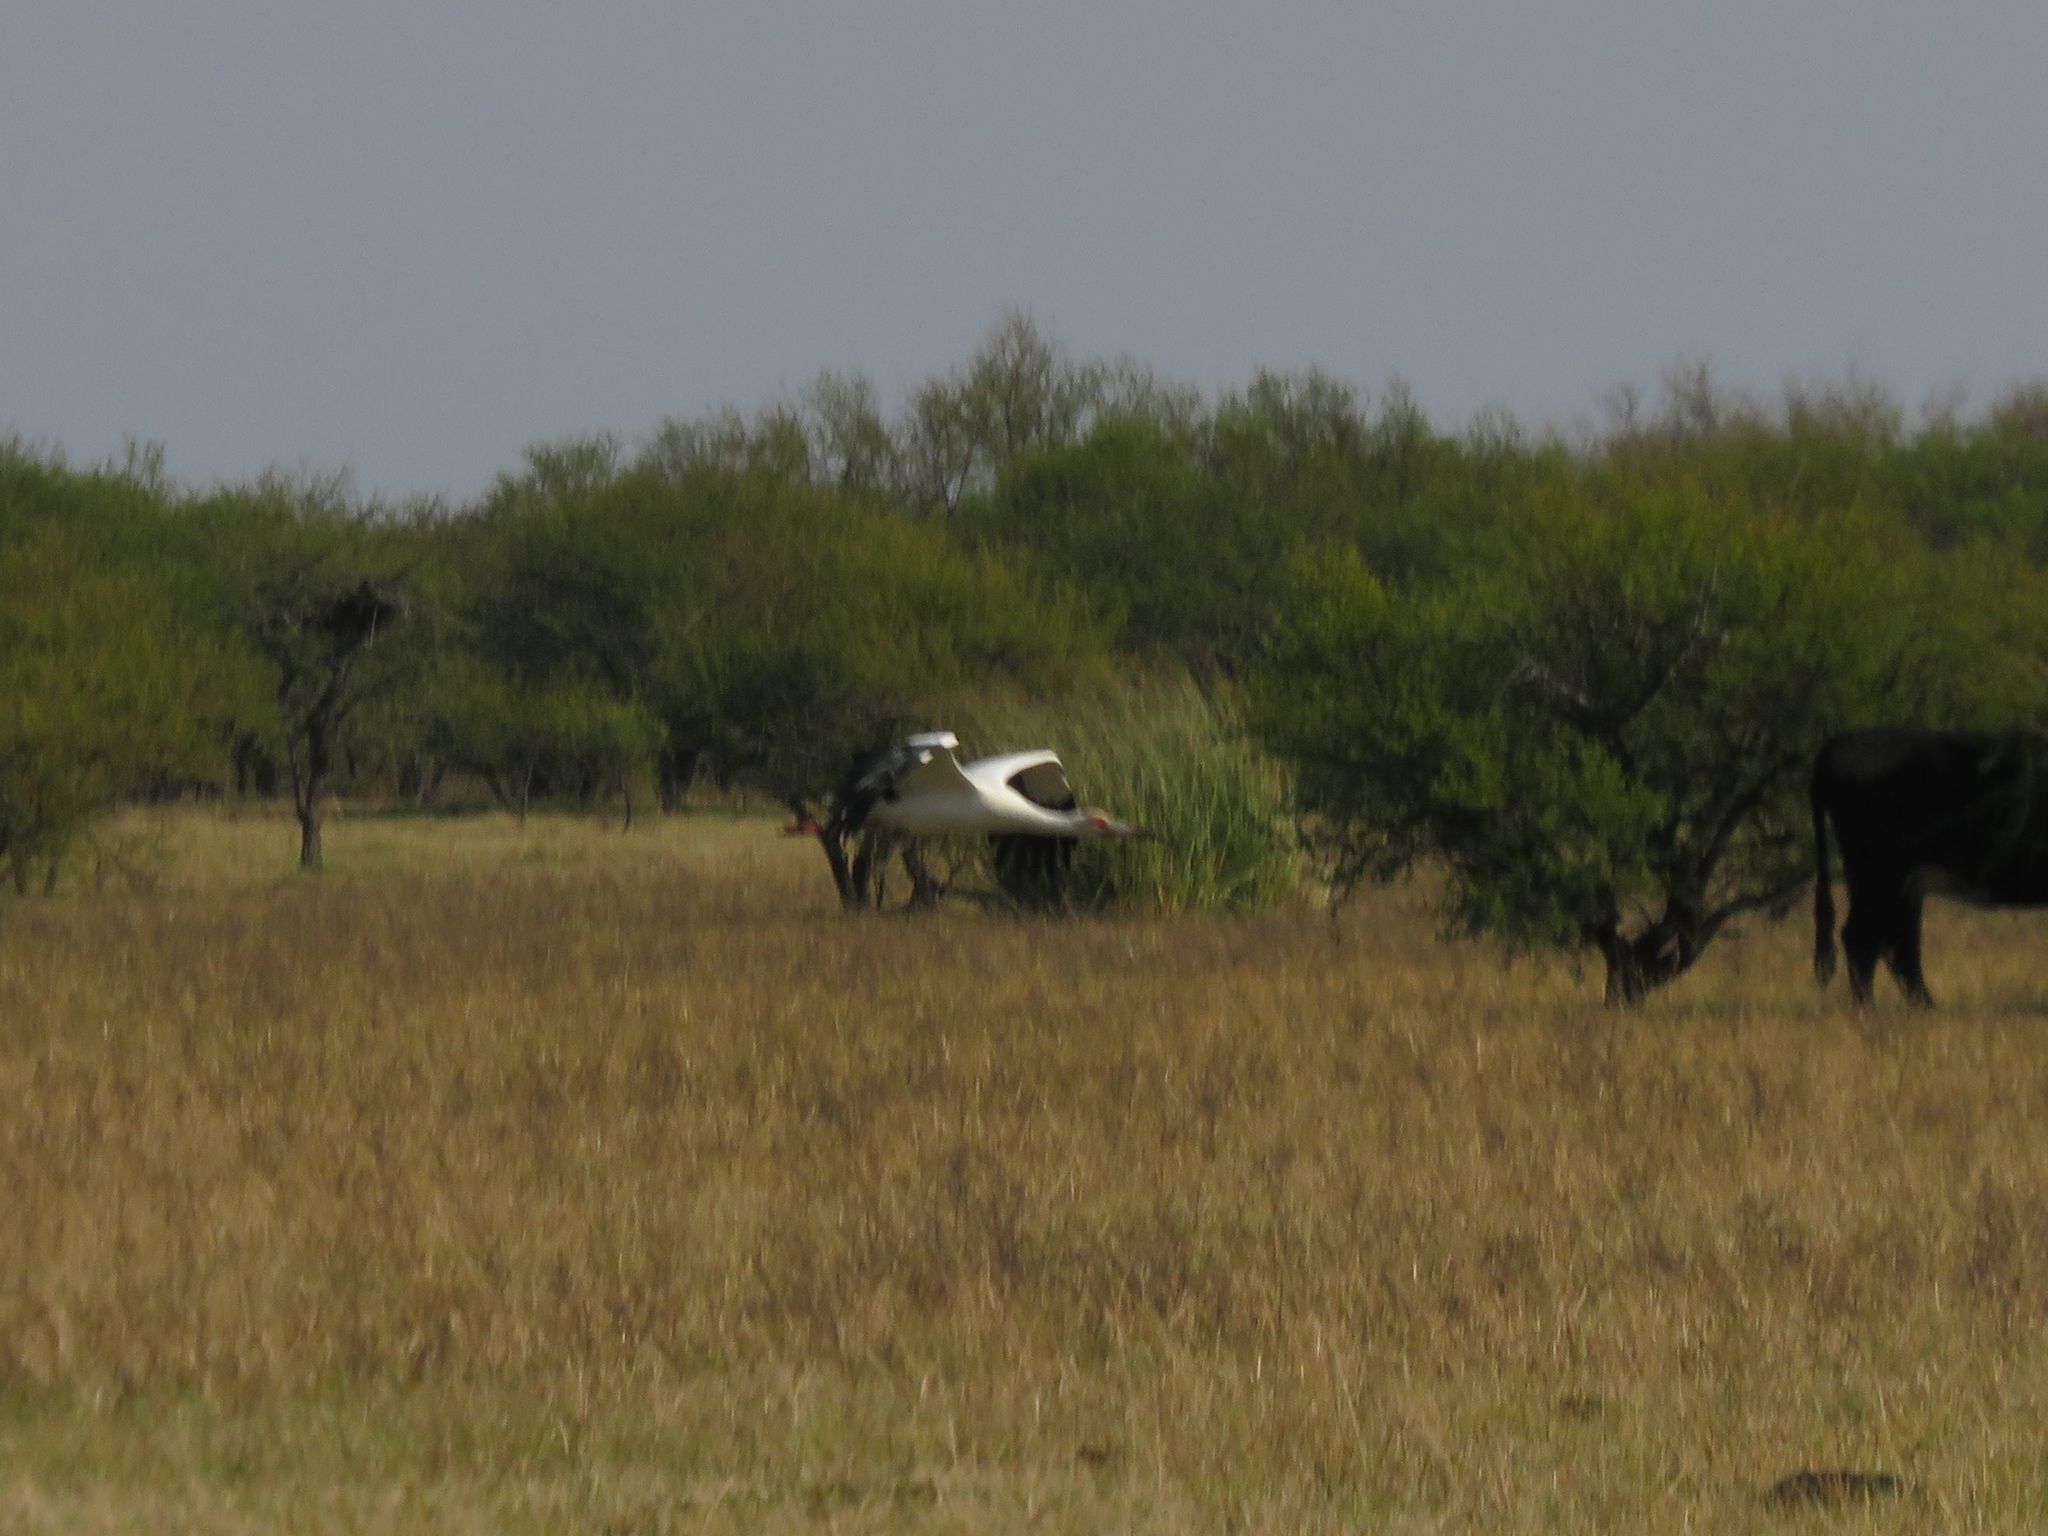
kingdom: Animalia
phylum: Chordata
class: Aves
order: Ciconiiformes
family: Ciconiidae
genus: Ciconia
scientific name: Ciconia maguari
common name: Maguari stork
